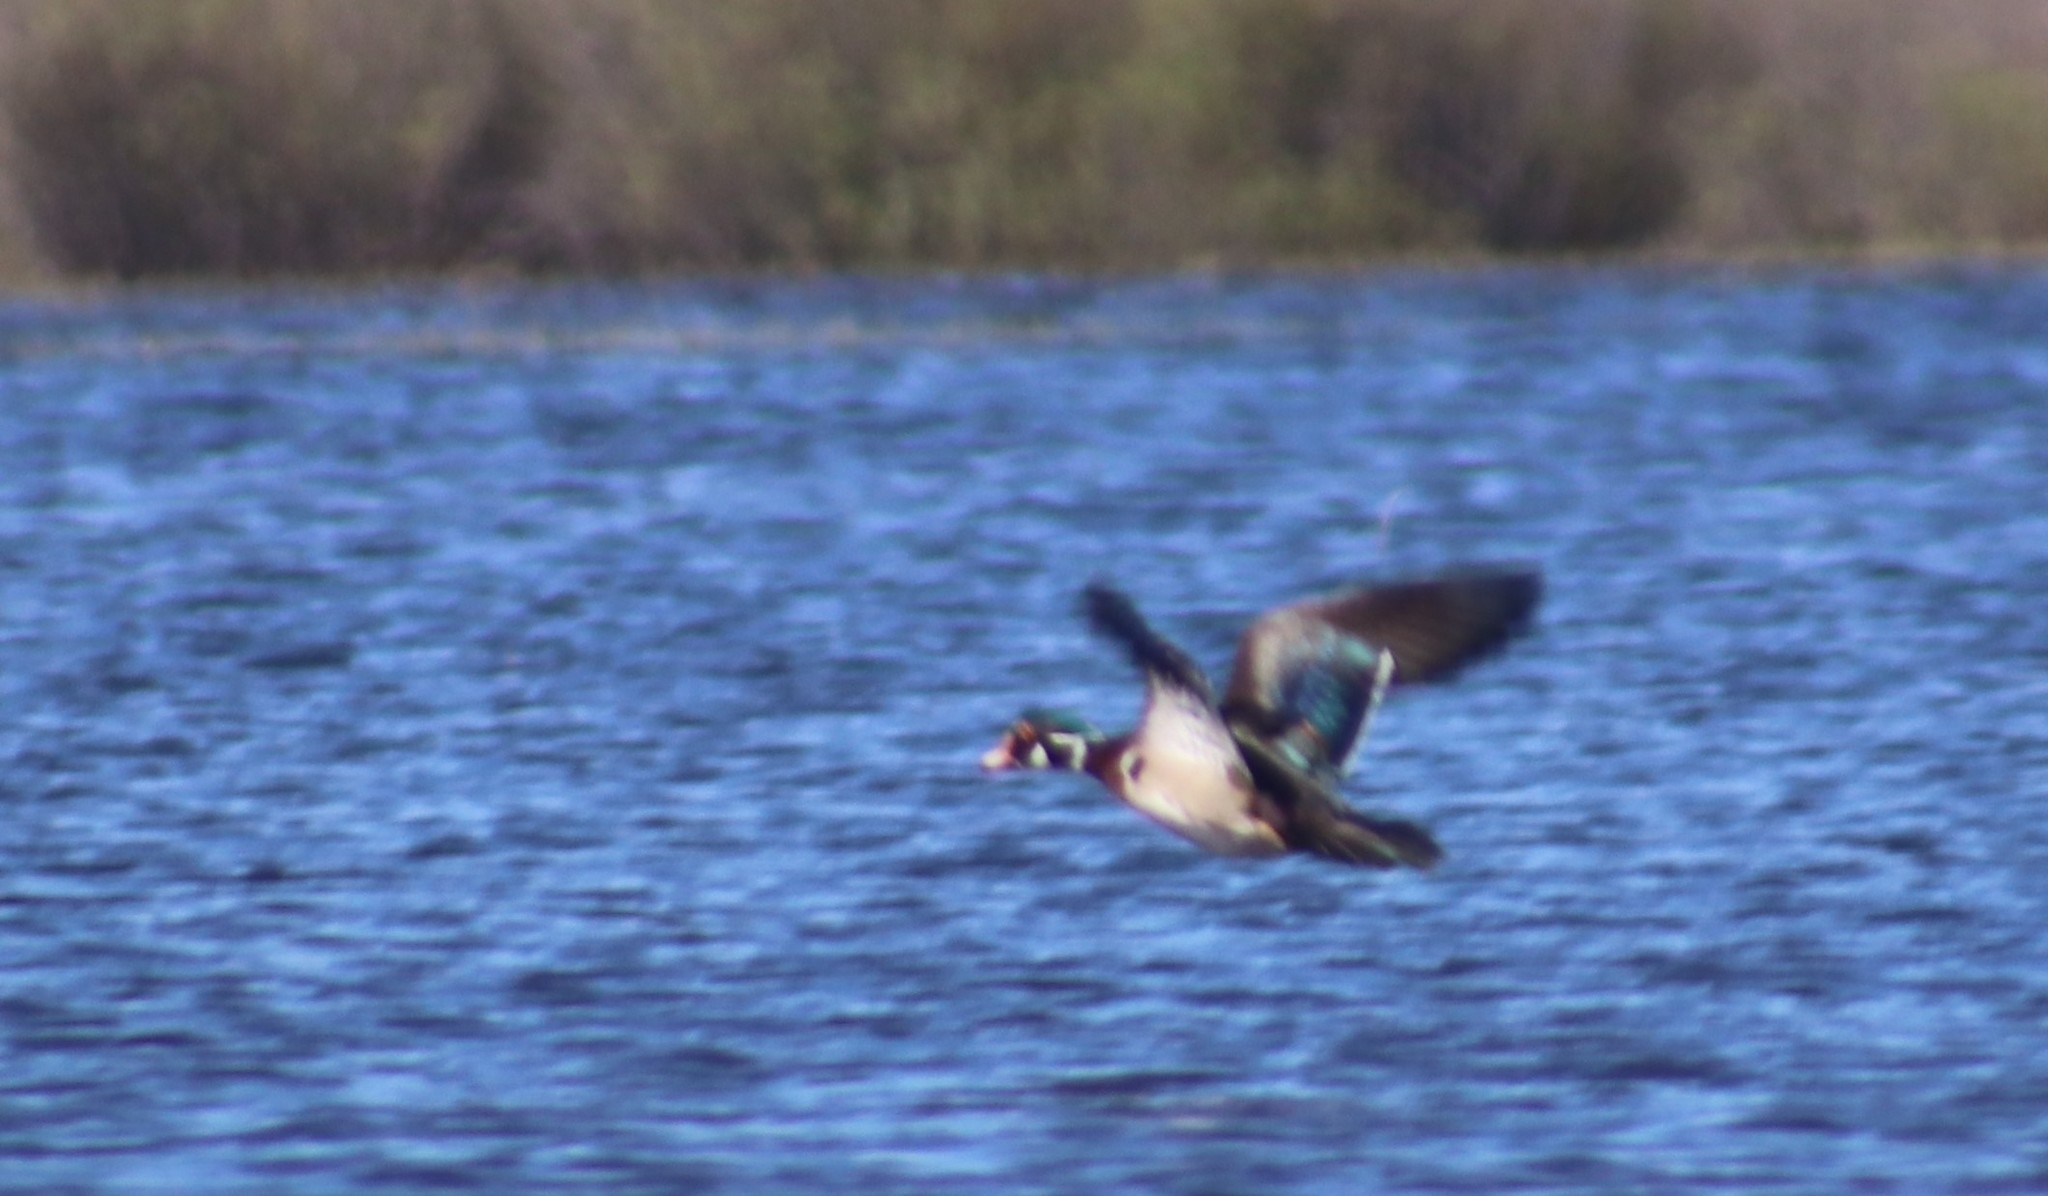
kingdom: Animalia
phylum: Chordata
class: Aves
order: Anseriformes
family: Anatidae
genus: Aix
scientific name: Aix sponsa
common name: Wood duck
